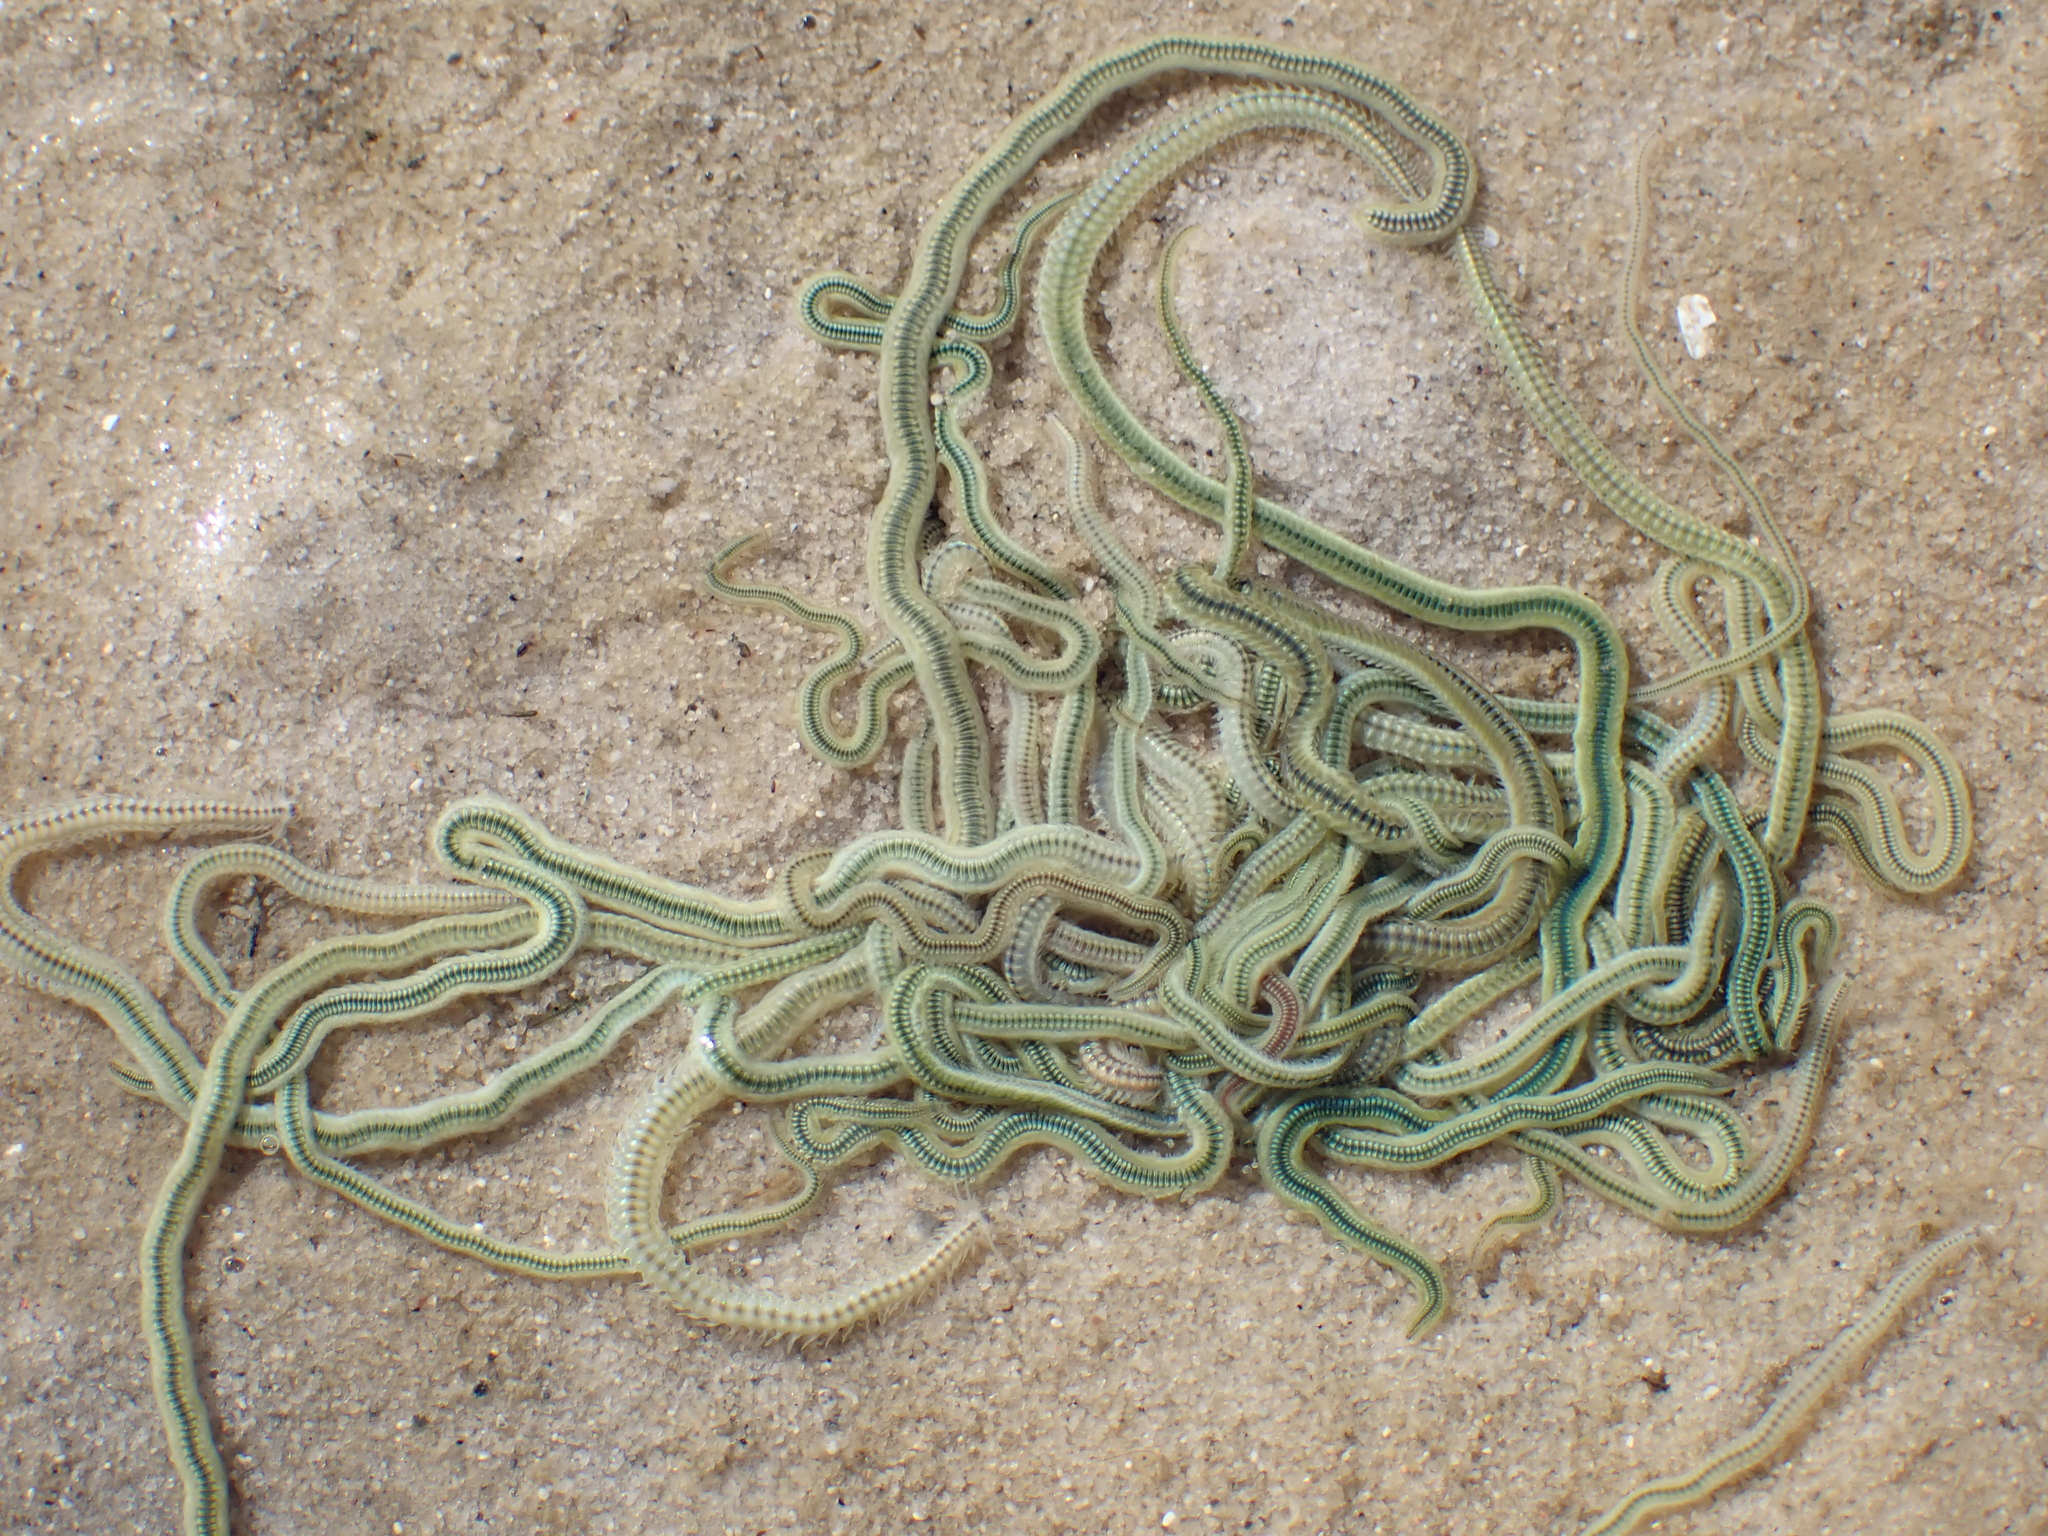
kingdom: Animalia
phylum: Annelida
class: Polychaeta
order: Phyllodocida
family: Phyllodocidae
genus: Phyllodoce
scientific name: Phyllodoce novaehollandiae
